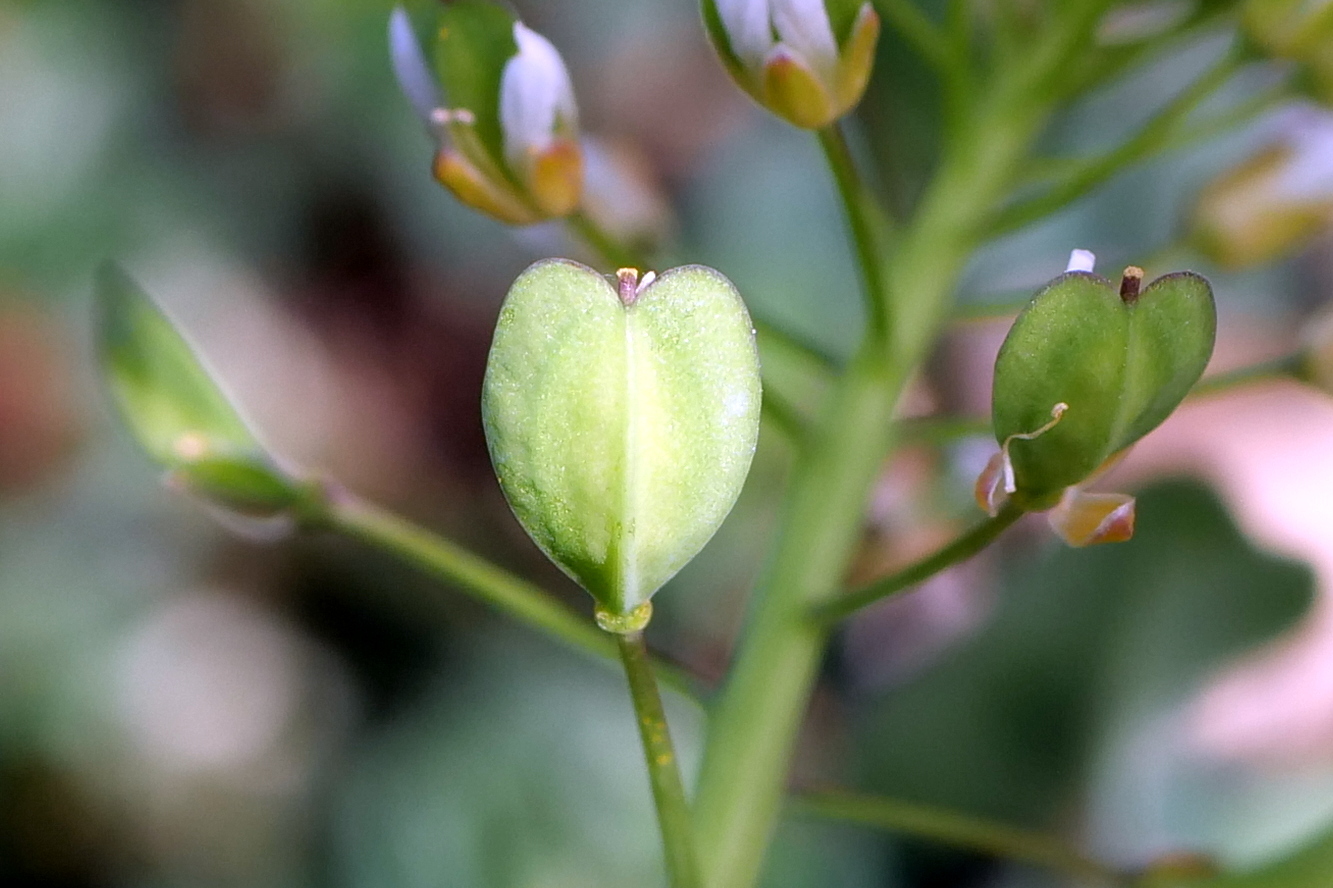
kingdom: Plantae
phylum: Tracheophyta
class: Magnoliopsida
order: Brassicales
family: Brassicaceae
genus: Noccaea
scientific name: Noccaea perfoliata
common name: Perfoliate pennycress
